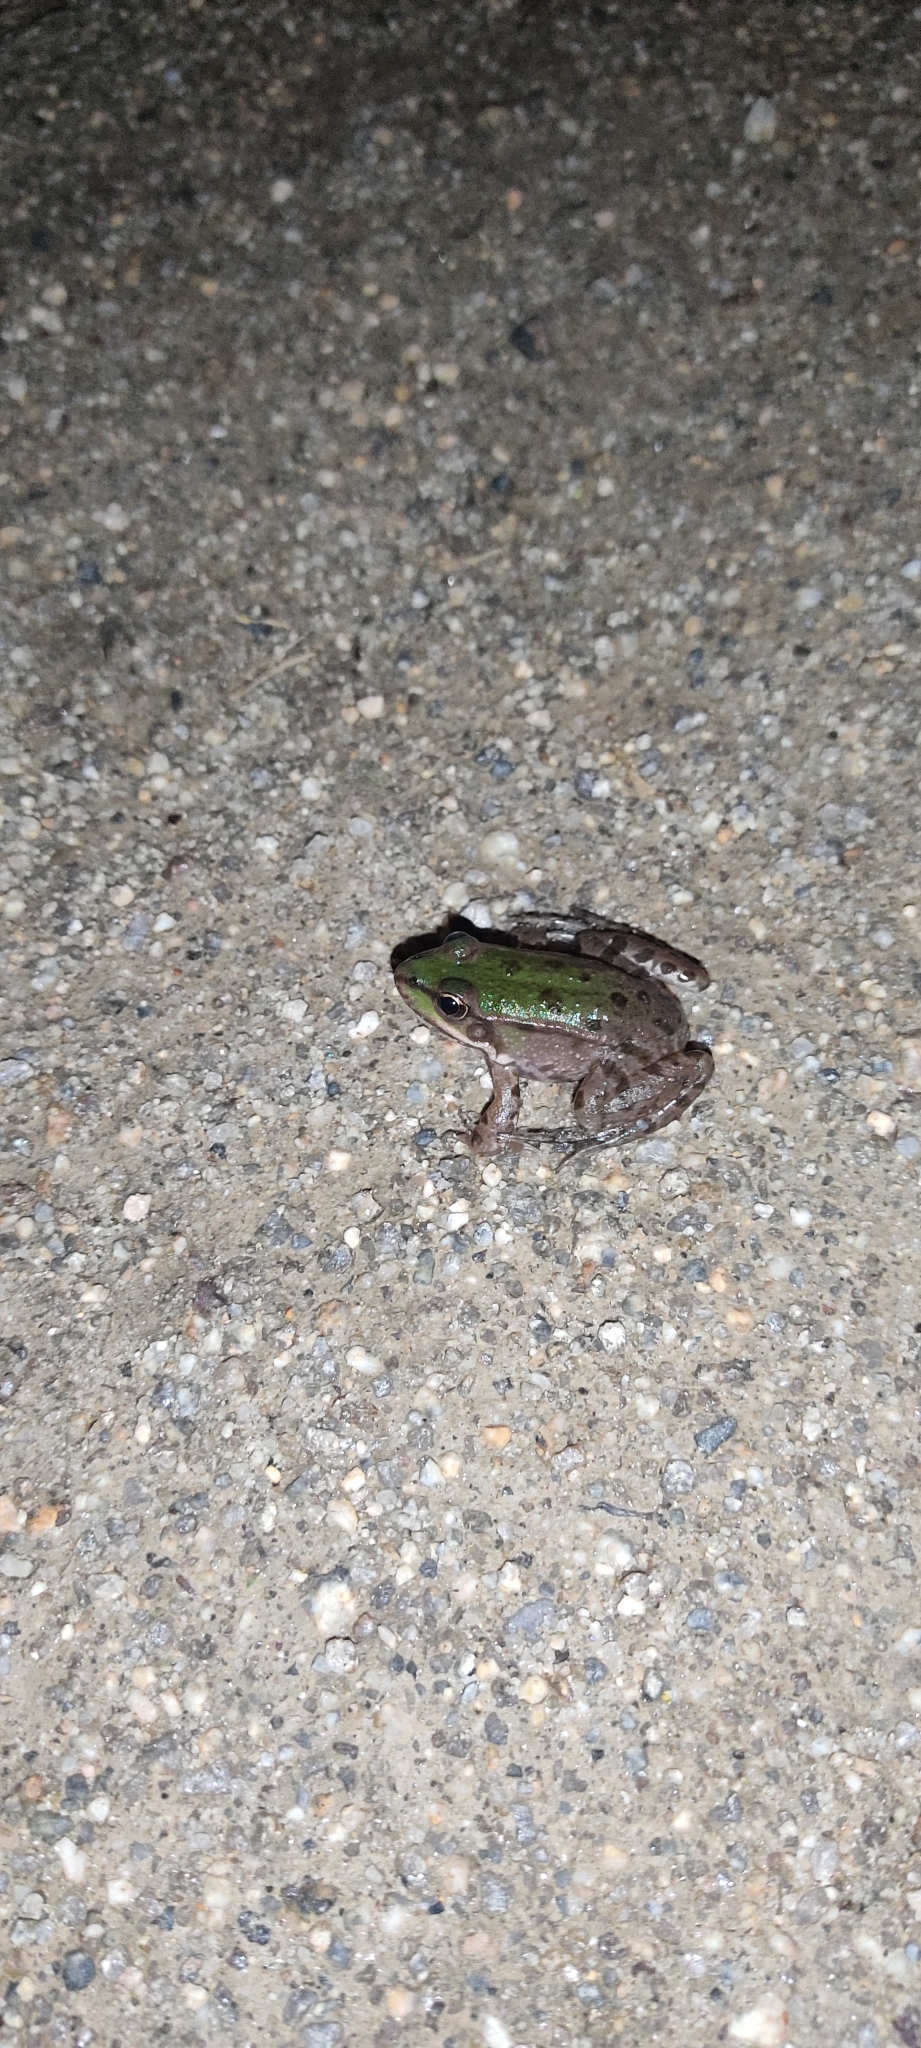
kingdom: Animalia
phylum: Chordata
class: Amphibia
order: Anura
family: Ranidae
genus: Pelophylax
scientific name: Pelophylax
